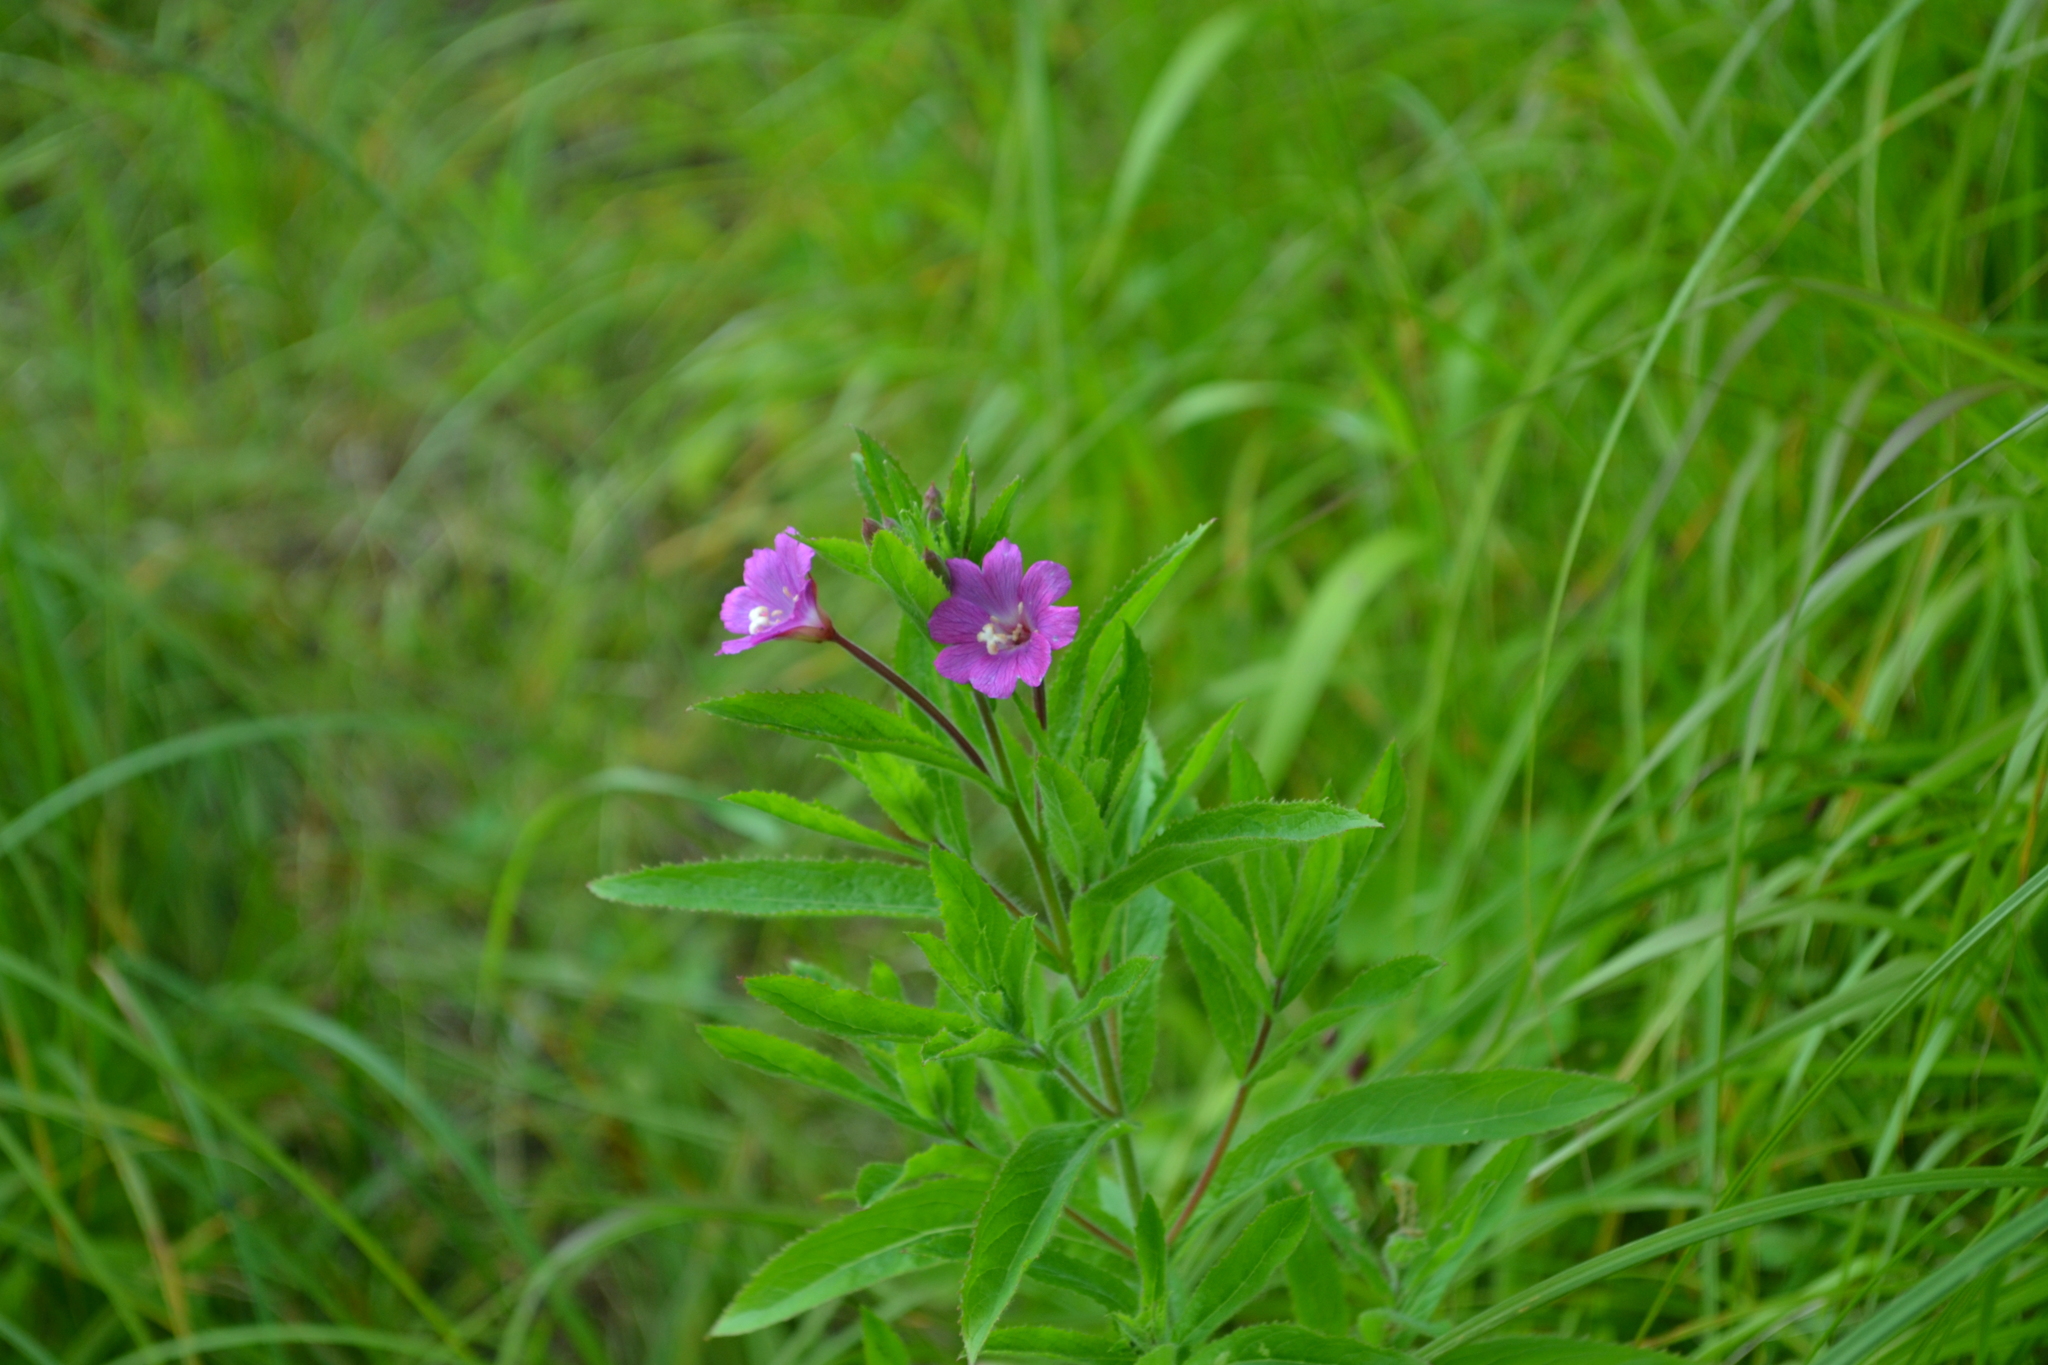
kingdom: Plantae
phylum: Tracheophyta
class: Magnoliopsida
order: Myrtales
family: Onagraceae
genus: Epilobium
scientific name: Epilobium hirsutum
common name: Great willowherb
